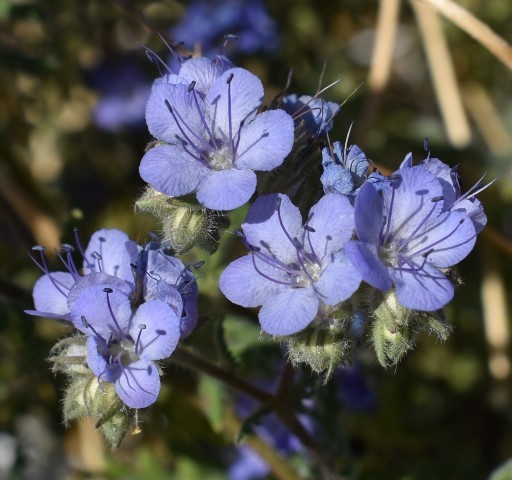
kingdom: Plantae
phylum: Tracheophyta
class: Magnoliopsida
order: Boraginales
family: Hydrophyllaceae
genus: Phacelia
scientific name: Phacelia distans
